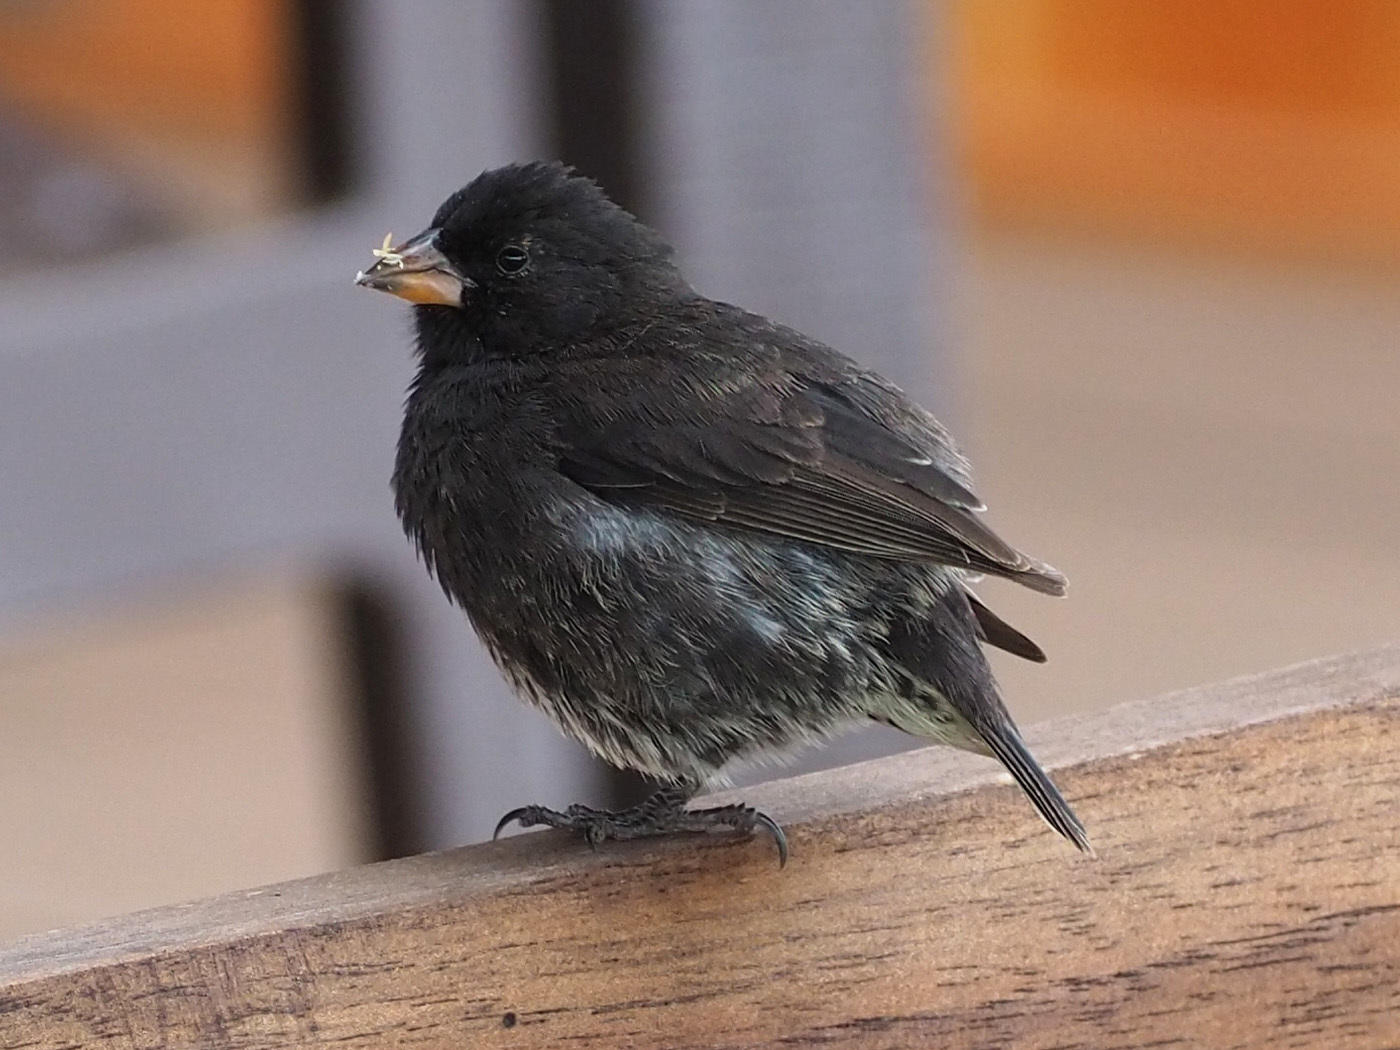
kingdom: Animalia
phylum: Chordata
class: Aves
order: Passeriformes
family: Thraupidae
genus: Geospiza
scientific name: Geospiza fuliginosa
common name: Small ground finch
